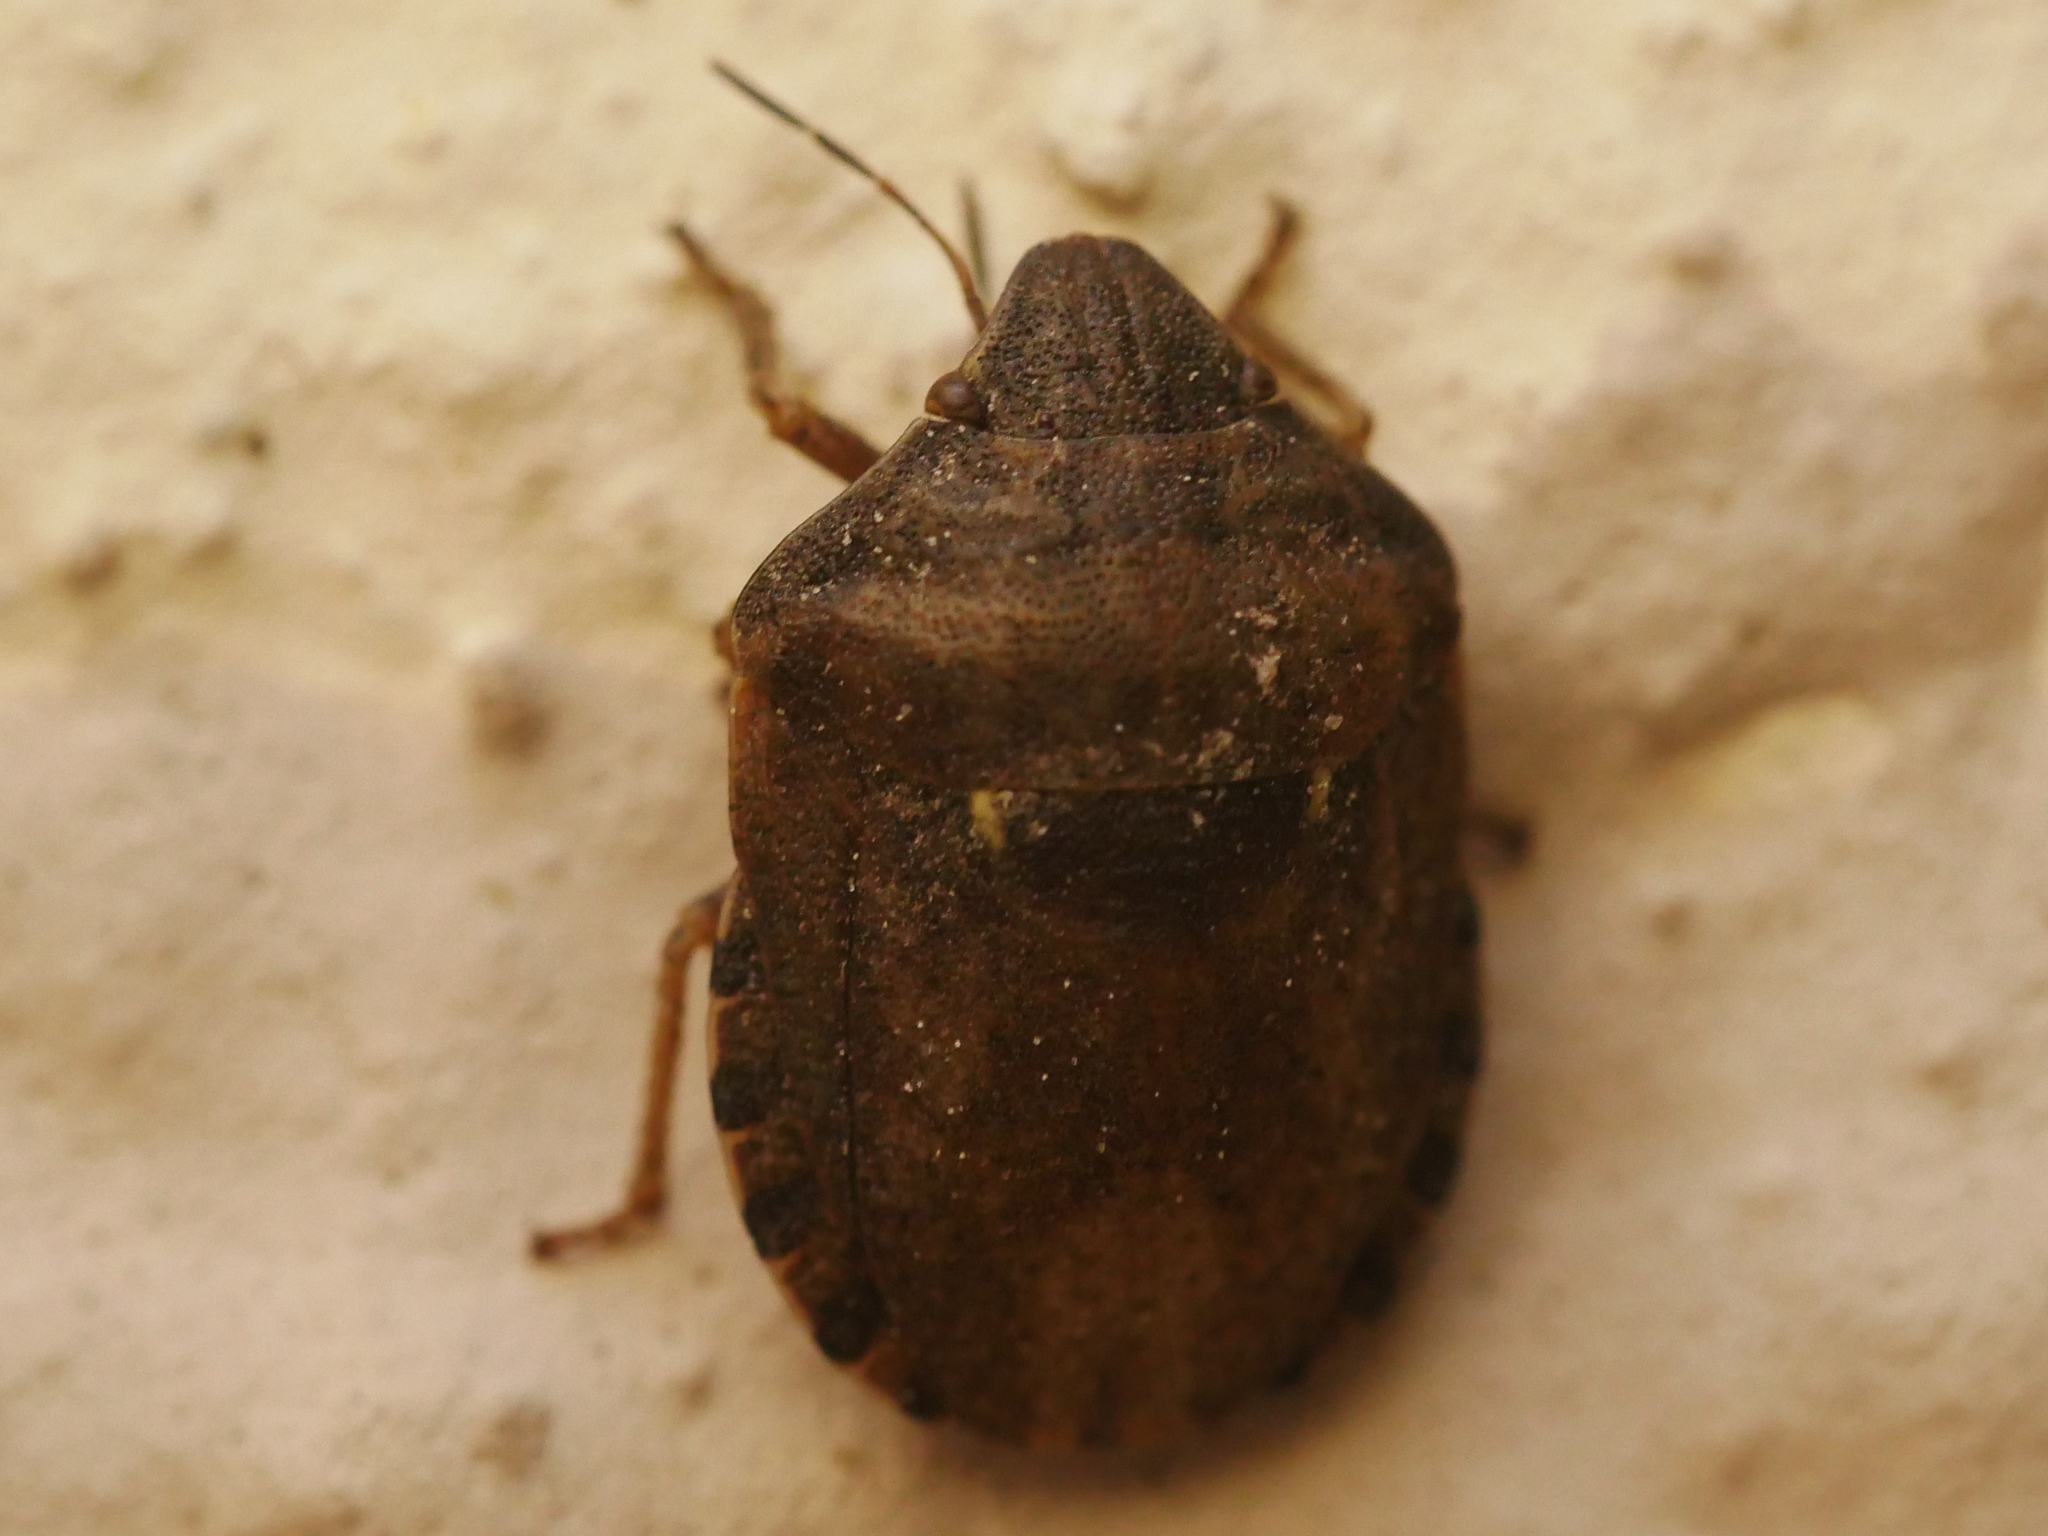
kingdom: Animalia
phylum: Arthropoda
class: Insecta
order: Hemiptera
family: Scutelleridae
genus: Eurygaster
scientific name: Eurygaster maura
